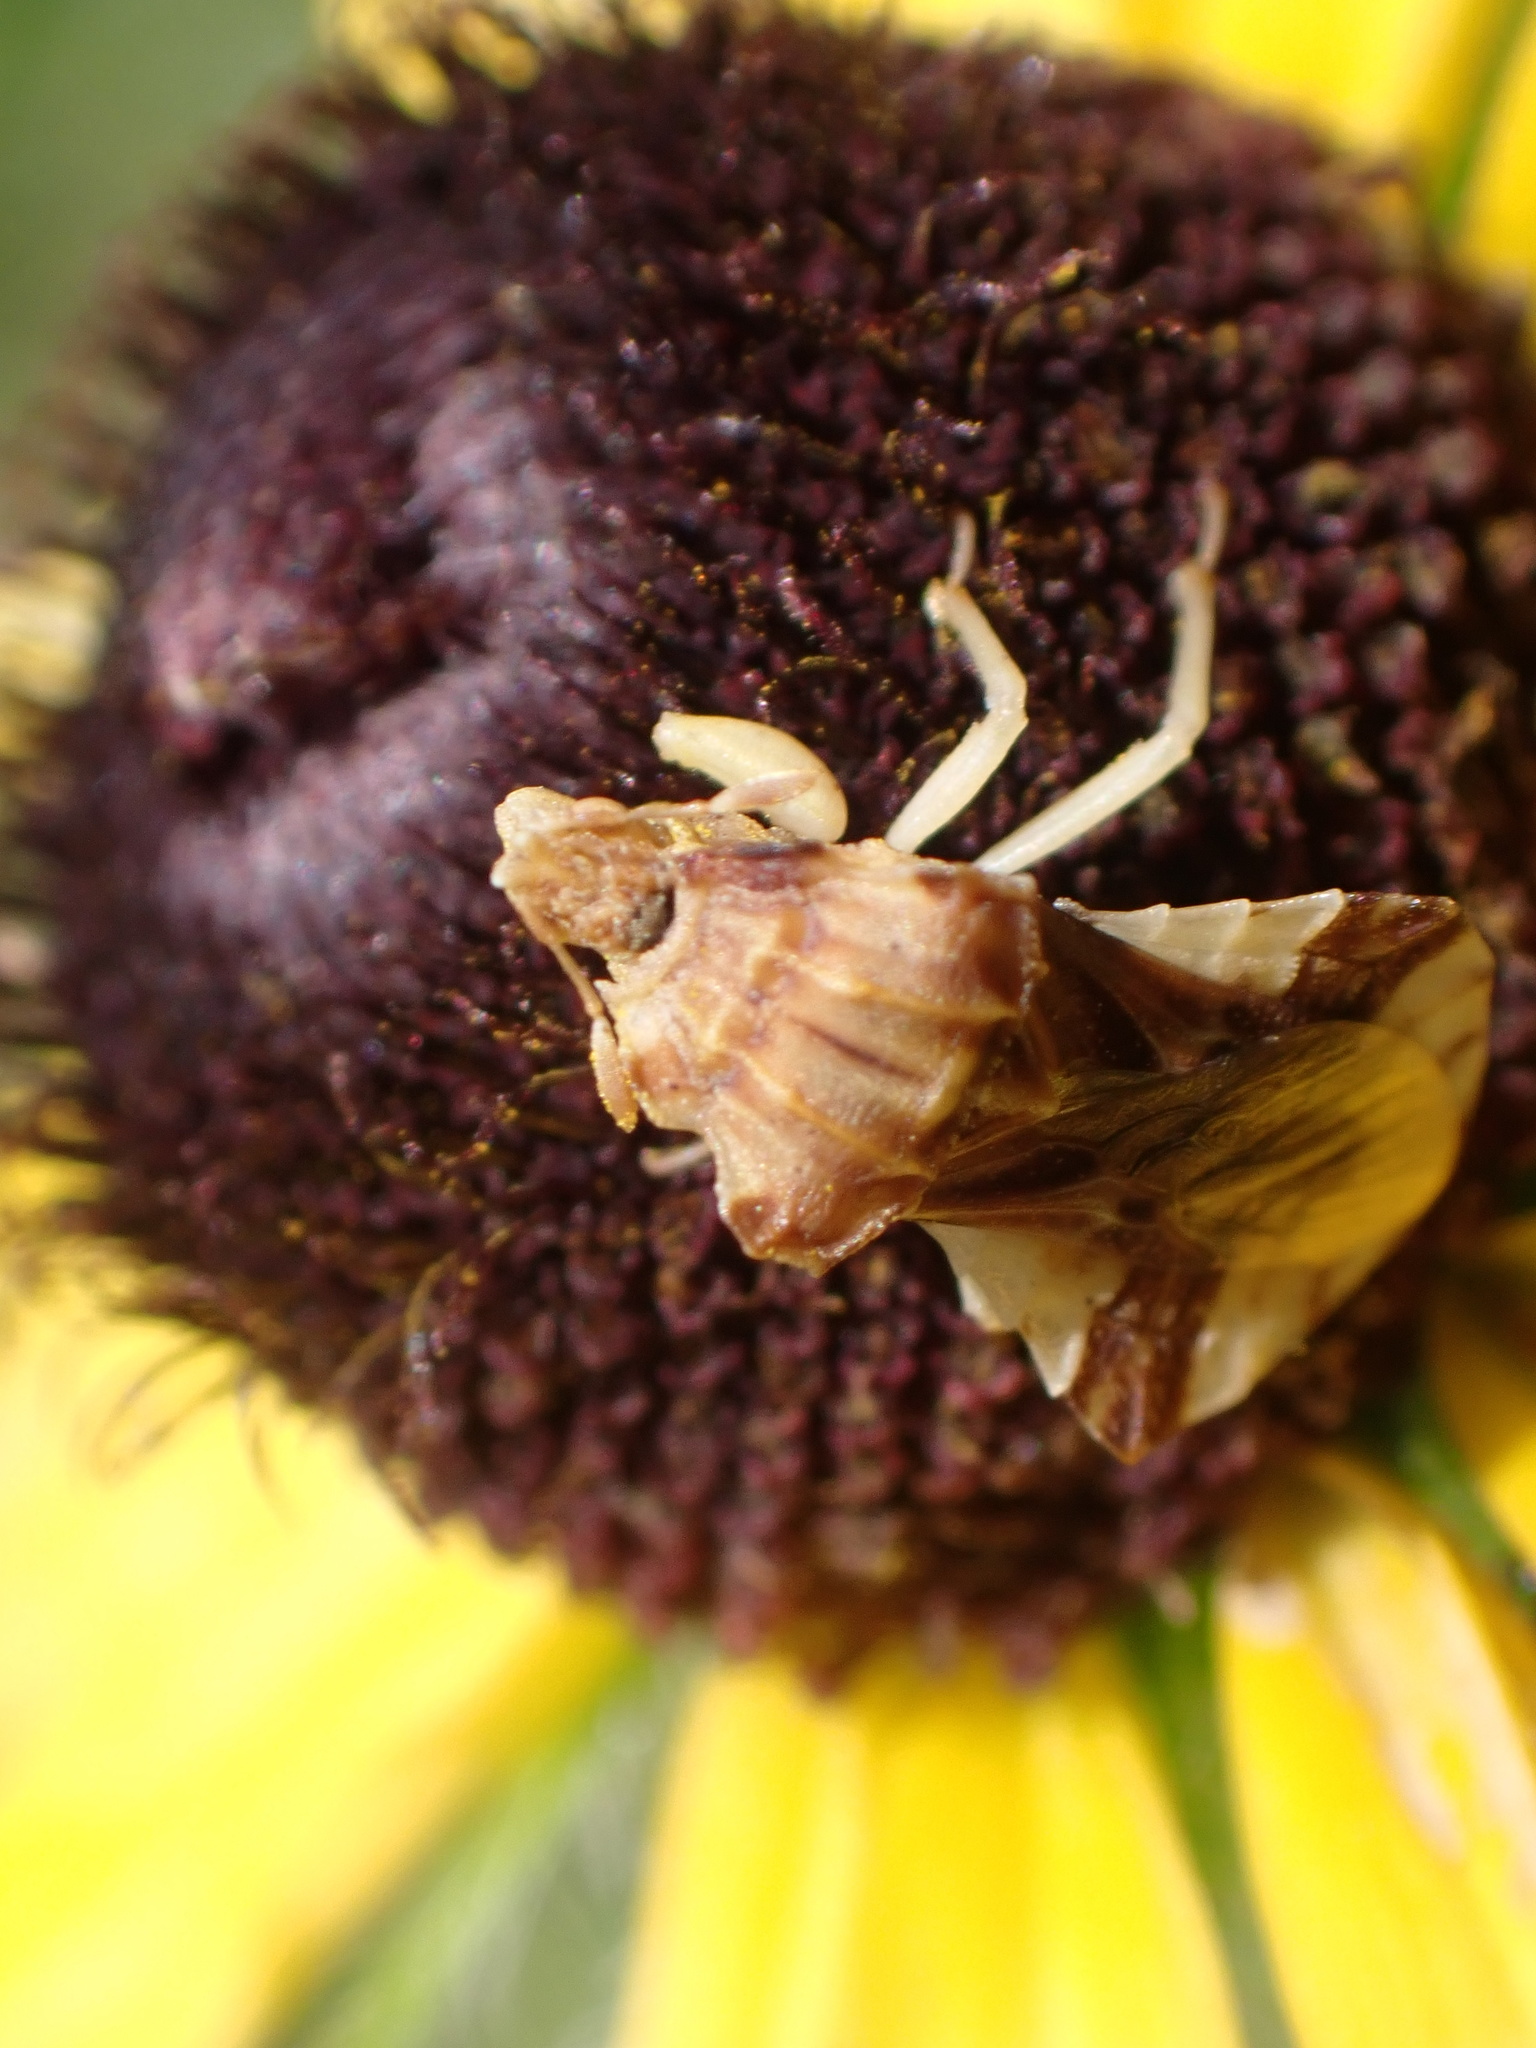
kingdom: Animalia
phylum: Arthropoda
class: Insecta
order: Hemiptera
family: Reduviidae
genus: Phymata
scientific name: Phymata fasciata
